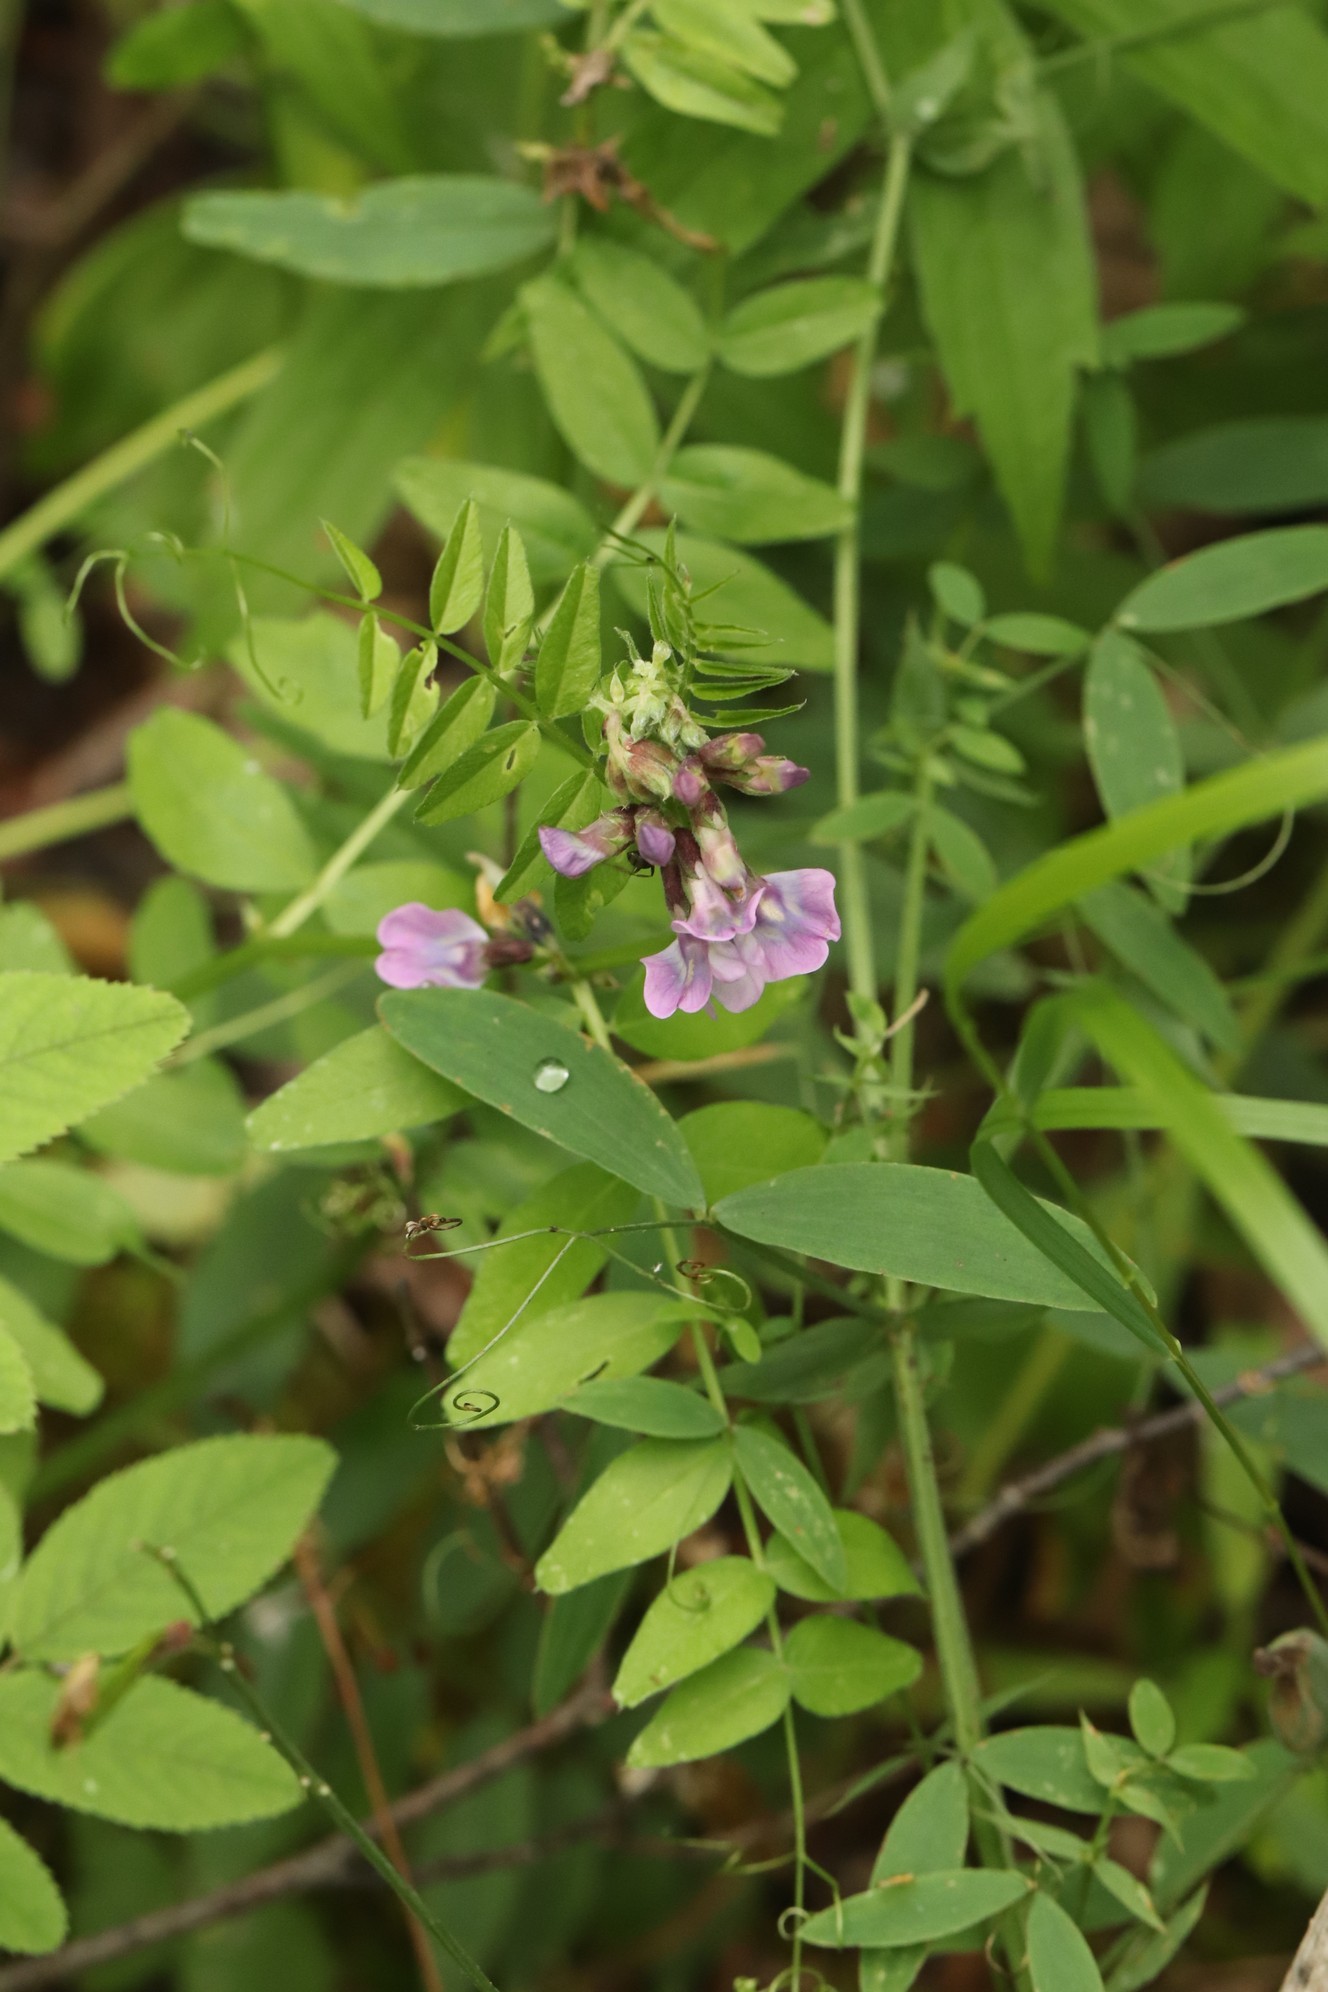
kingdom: Plantae
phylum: Tracheophyta
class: Magnoliopsida
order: Fabales
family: Fabaceae
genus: Vicia
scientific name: Vicia sepium
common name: Bush vetch
